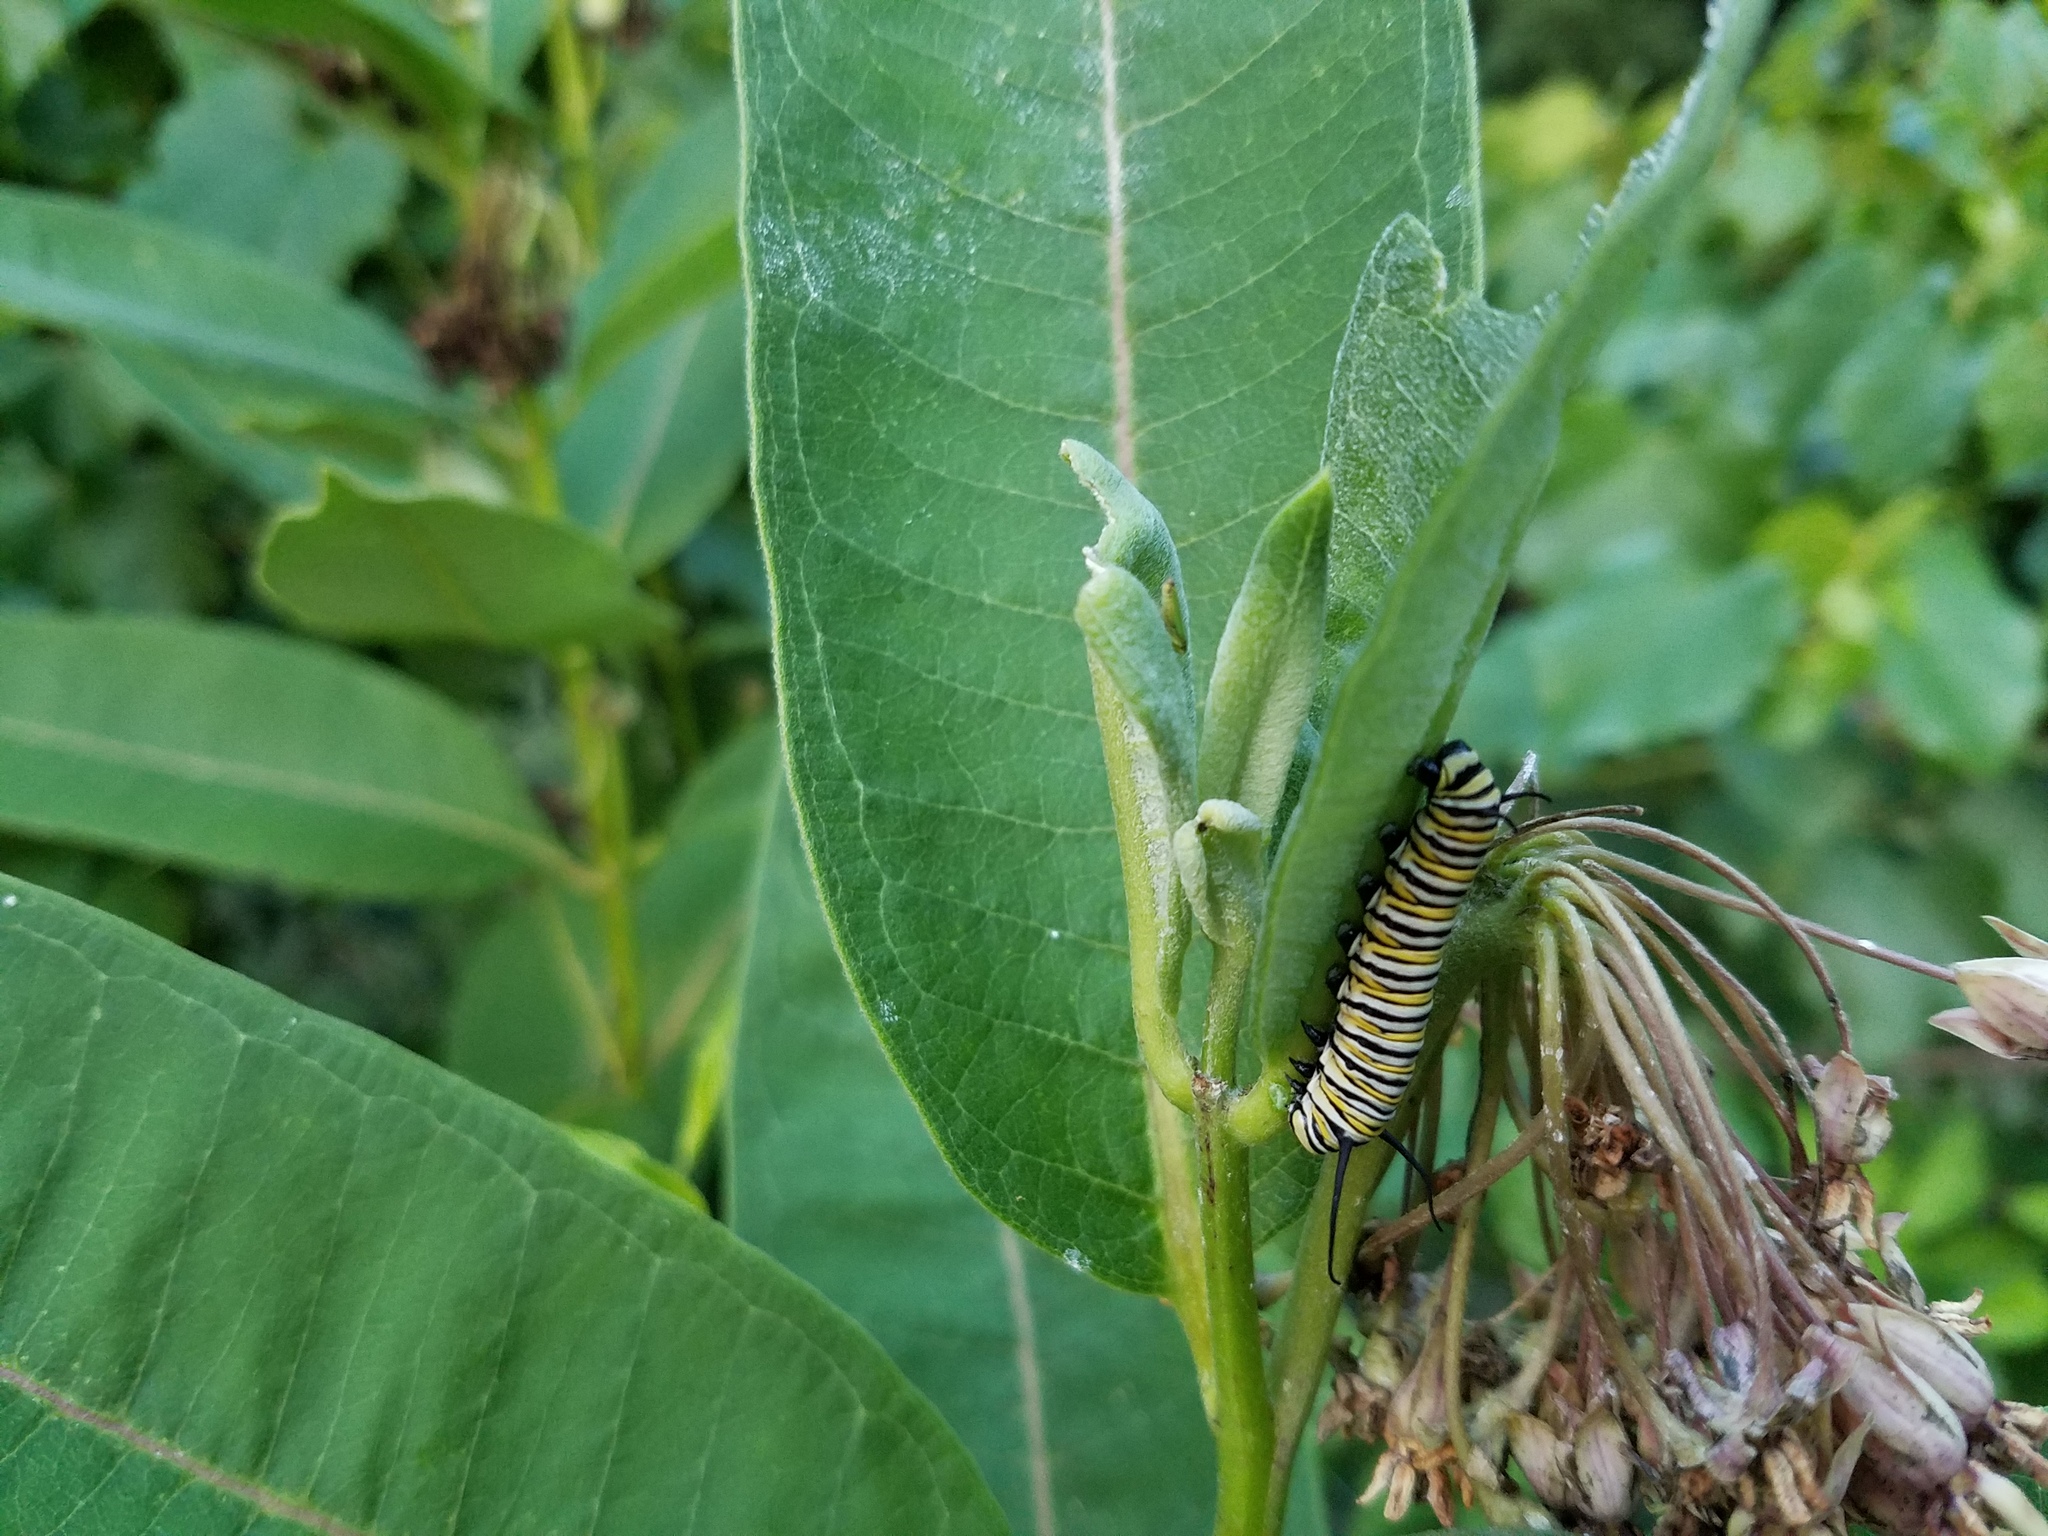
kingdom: Animalia
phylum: Arthropoda
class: Insecta
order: Lepidoptera
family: Nymphalidae
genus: Danaus
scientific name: Danaus plexippus
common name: Monarch
